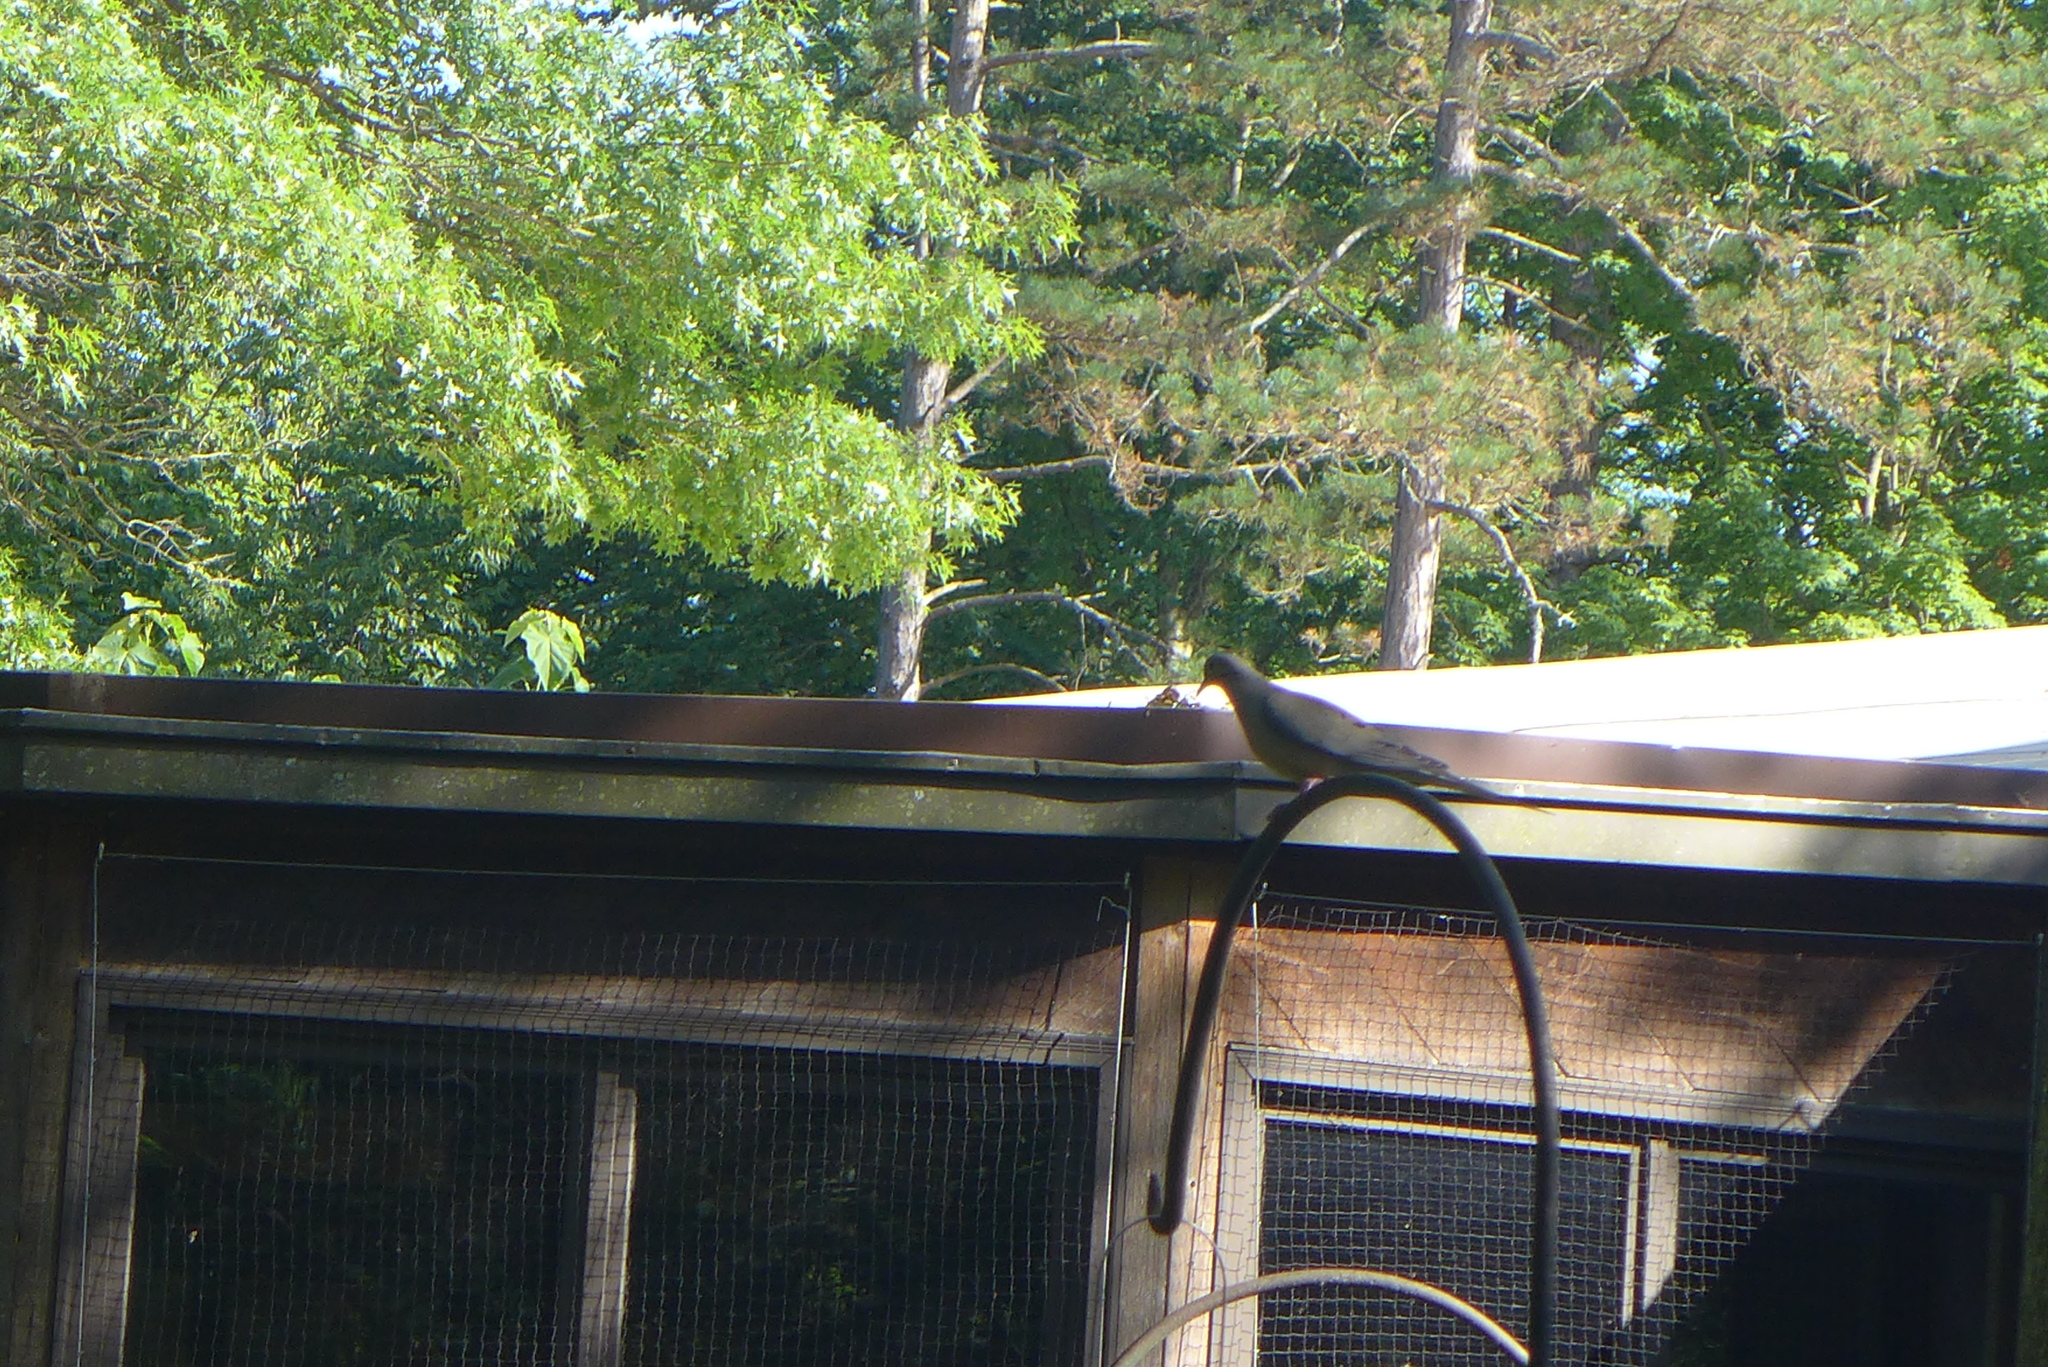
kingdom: Animalia
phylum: Chordata
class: Aves
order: Columbiformes
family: Columbidae
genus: Zenaida
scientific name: Zenaida macroura
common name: Mourning dove
